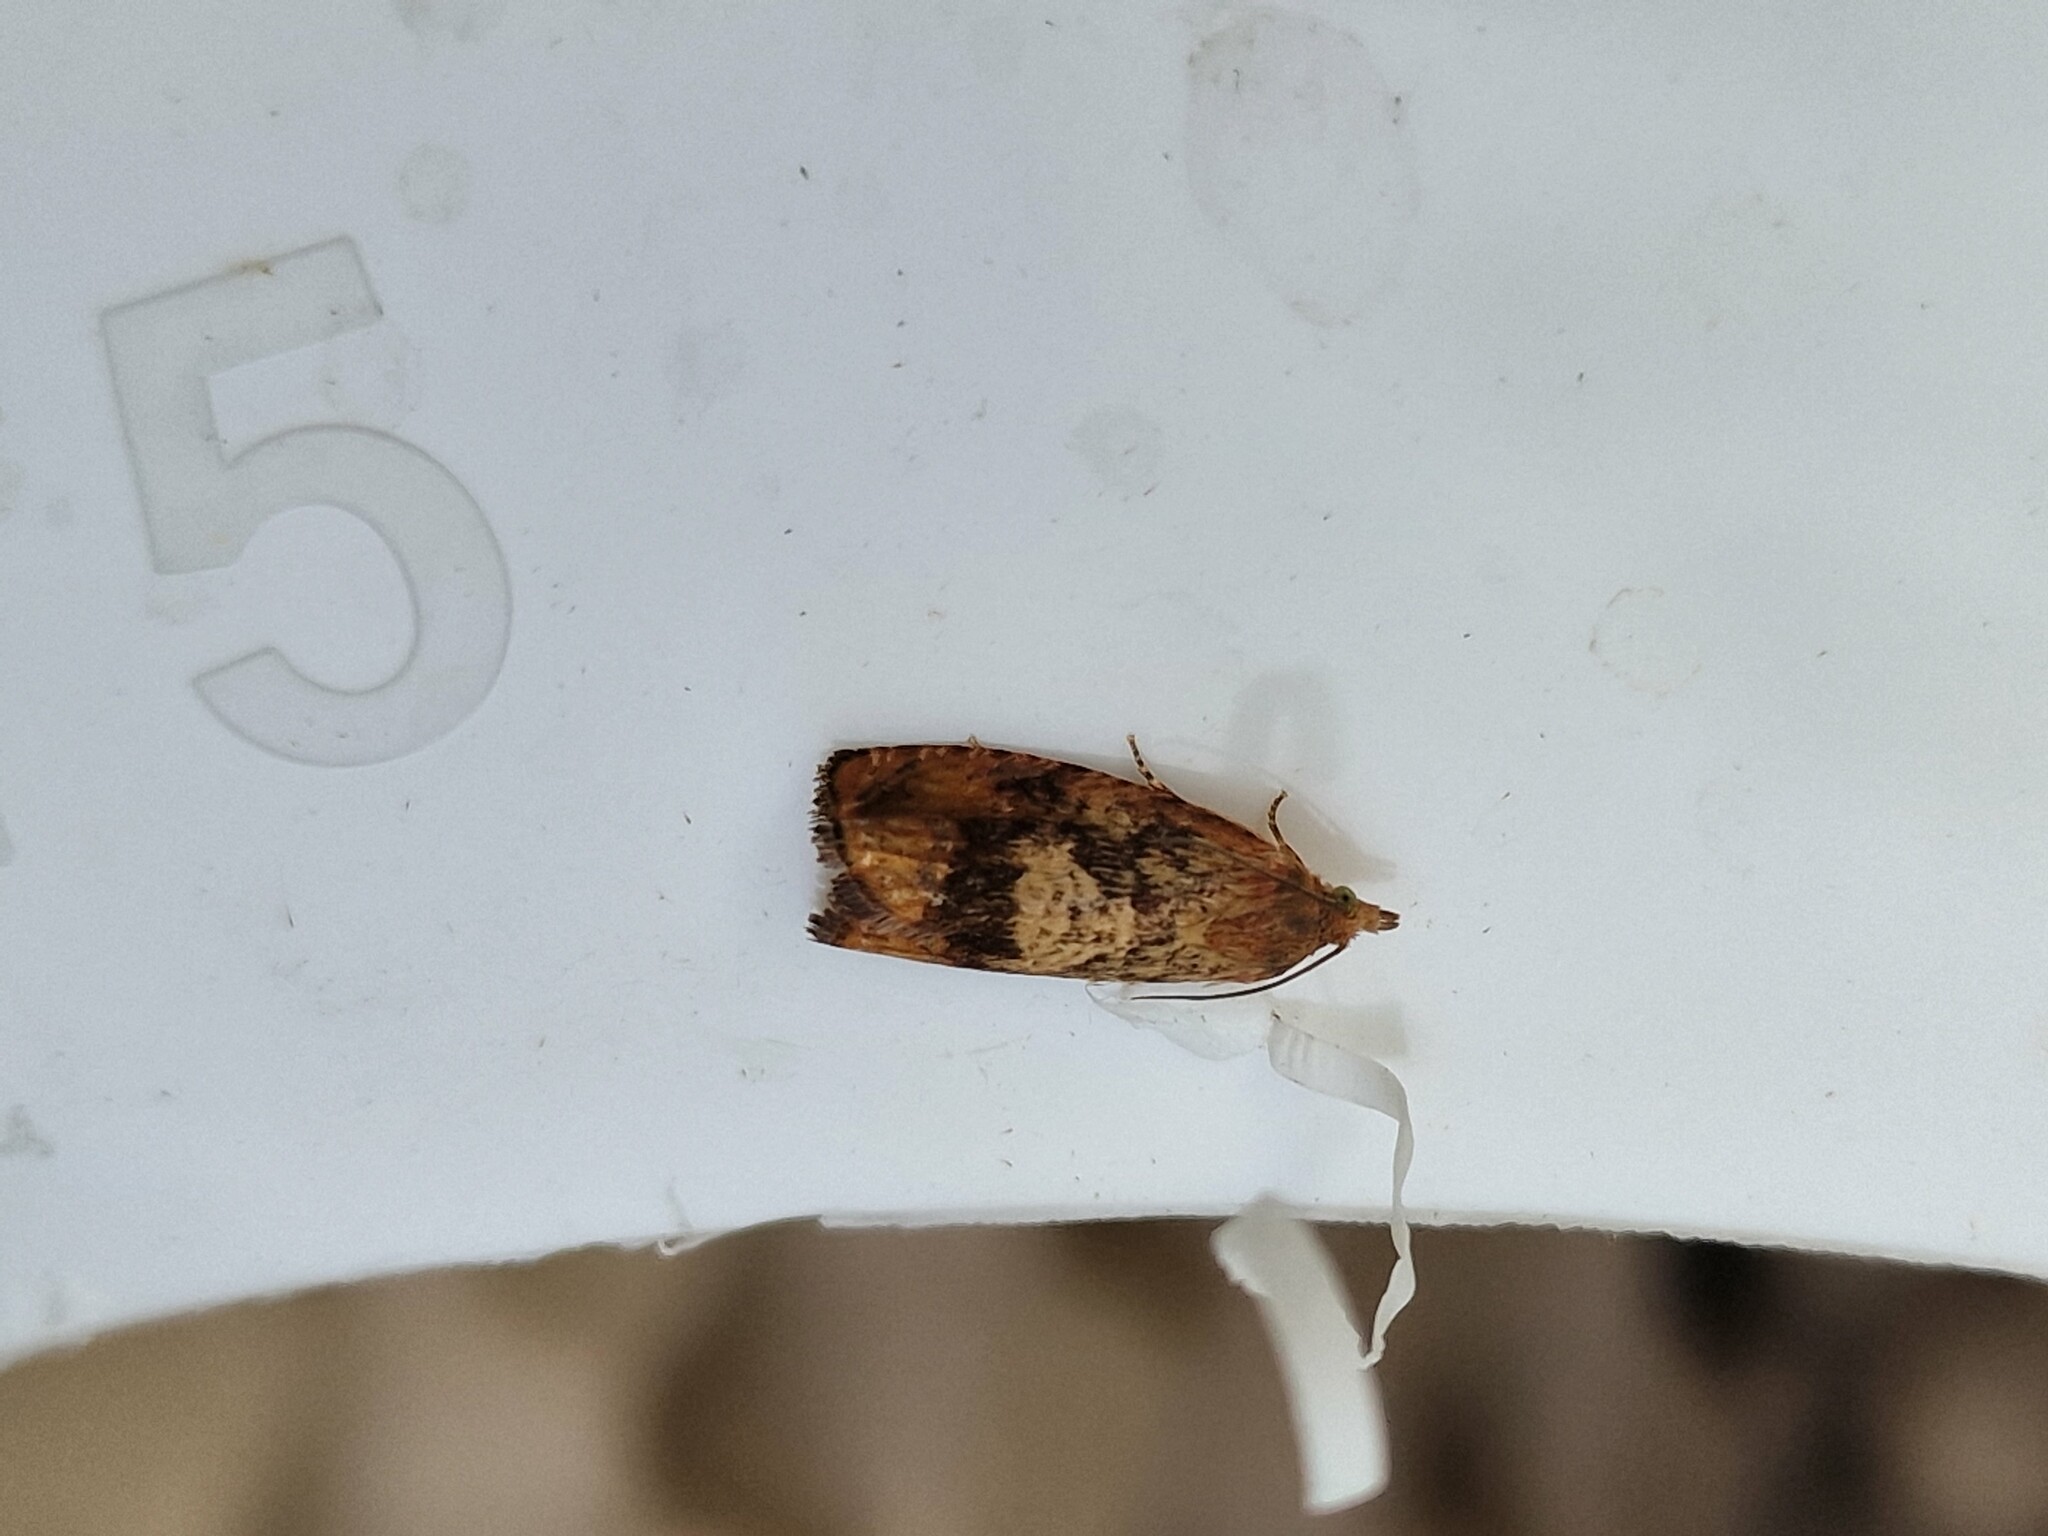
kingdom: Animalia
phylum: Arthropoda
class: Insecta
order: Lepidoptera
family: Tortricidae
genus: Cydia
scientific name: Cydia amplana
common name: Vagrant piercer
